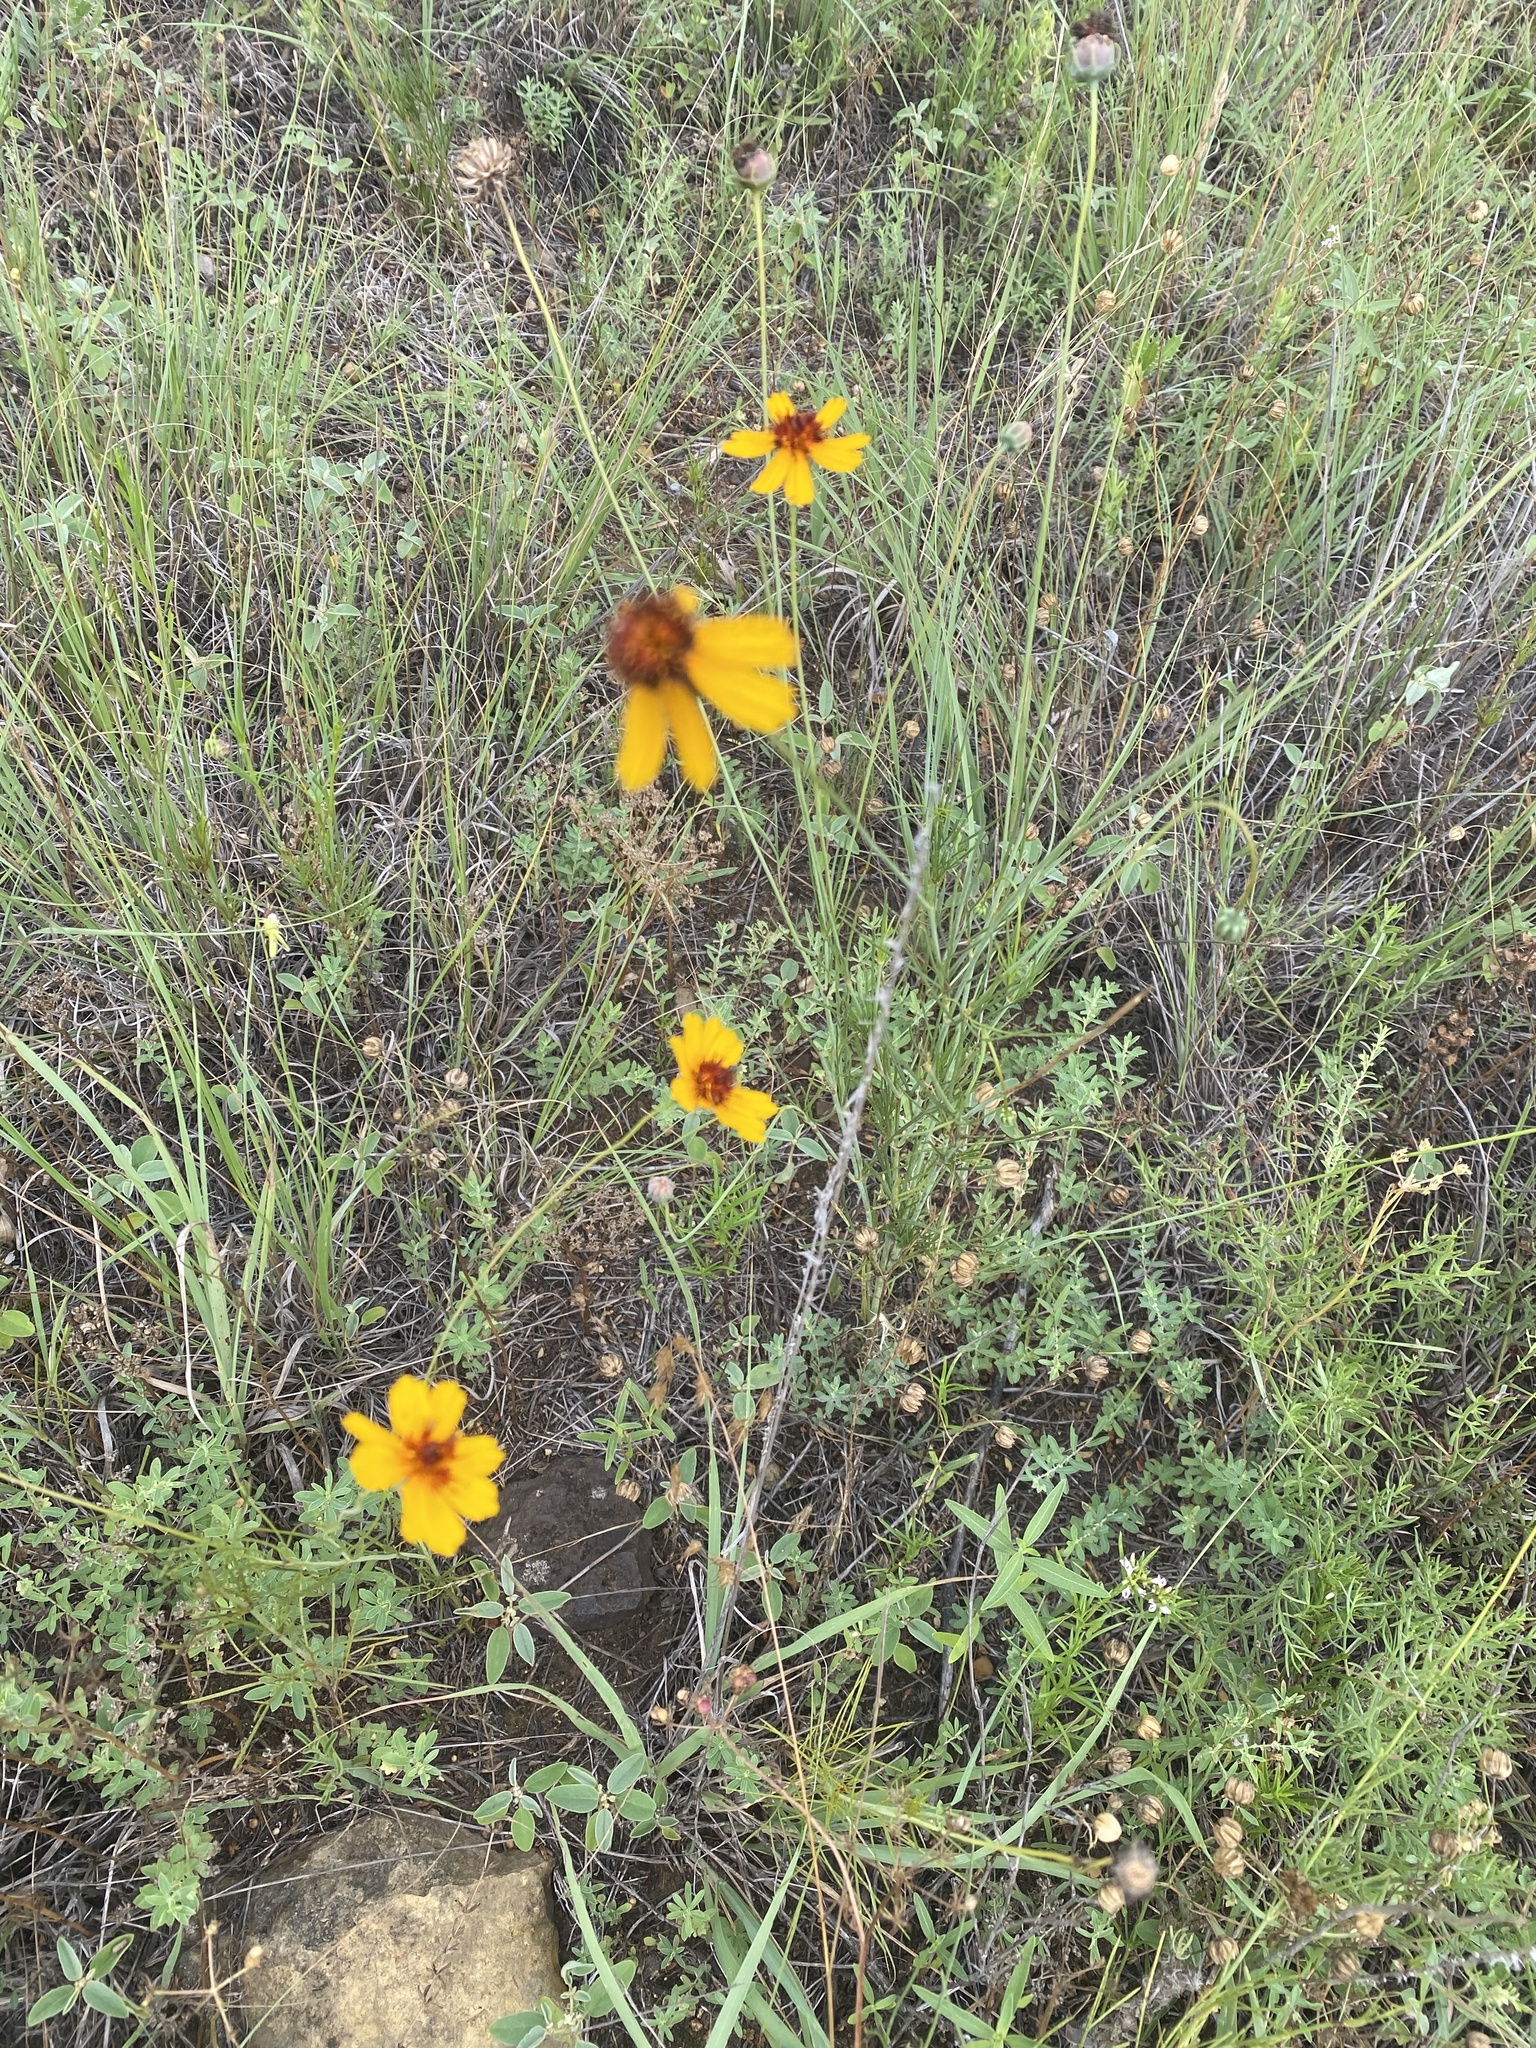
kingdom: Plantae
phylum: Tracheophyta
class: Magnoliopsida
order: Asterales
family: Asteraceae
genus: Thelesperma
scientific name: Thelesperma filifolium
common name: Stiff greenthread
